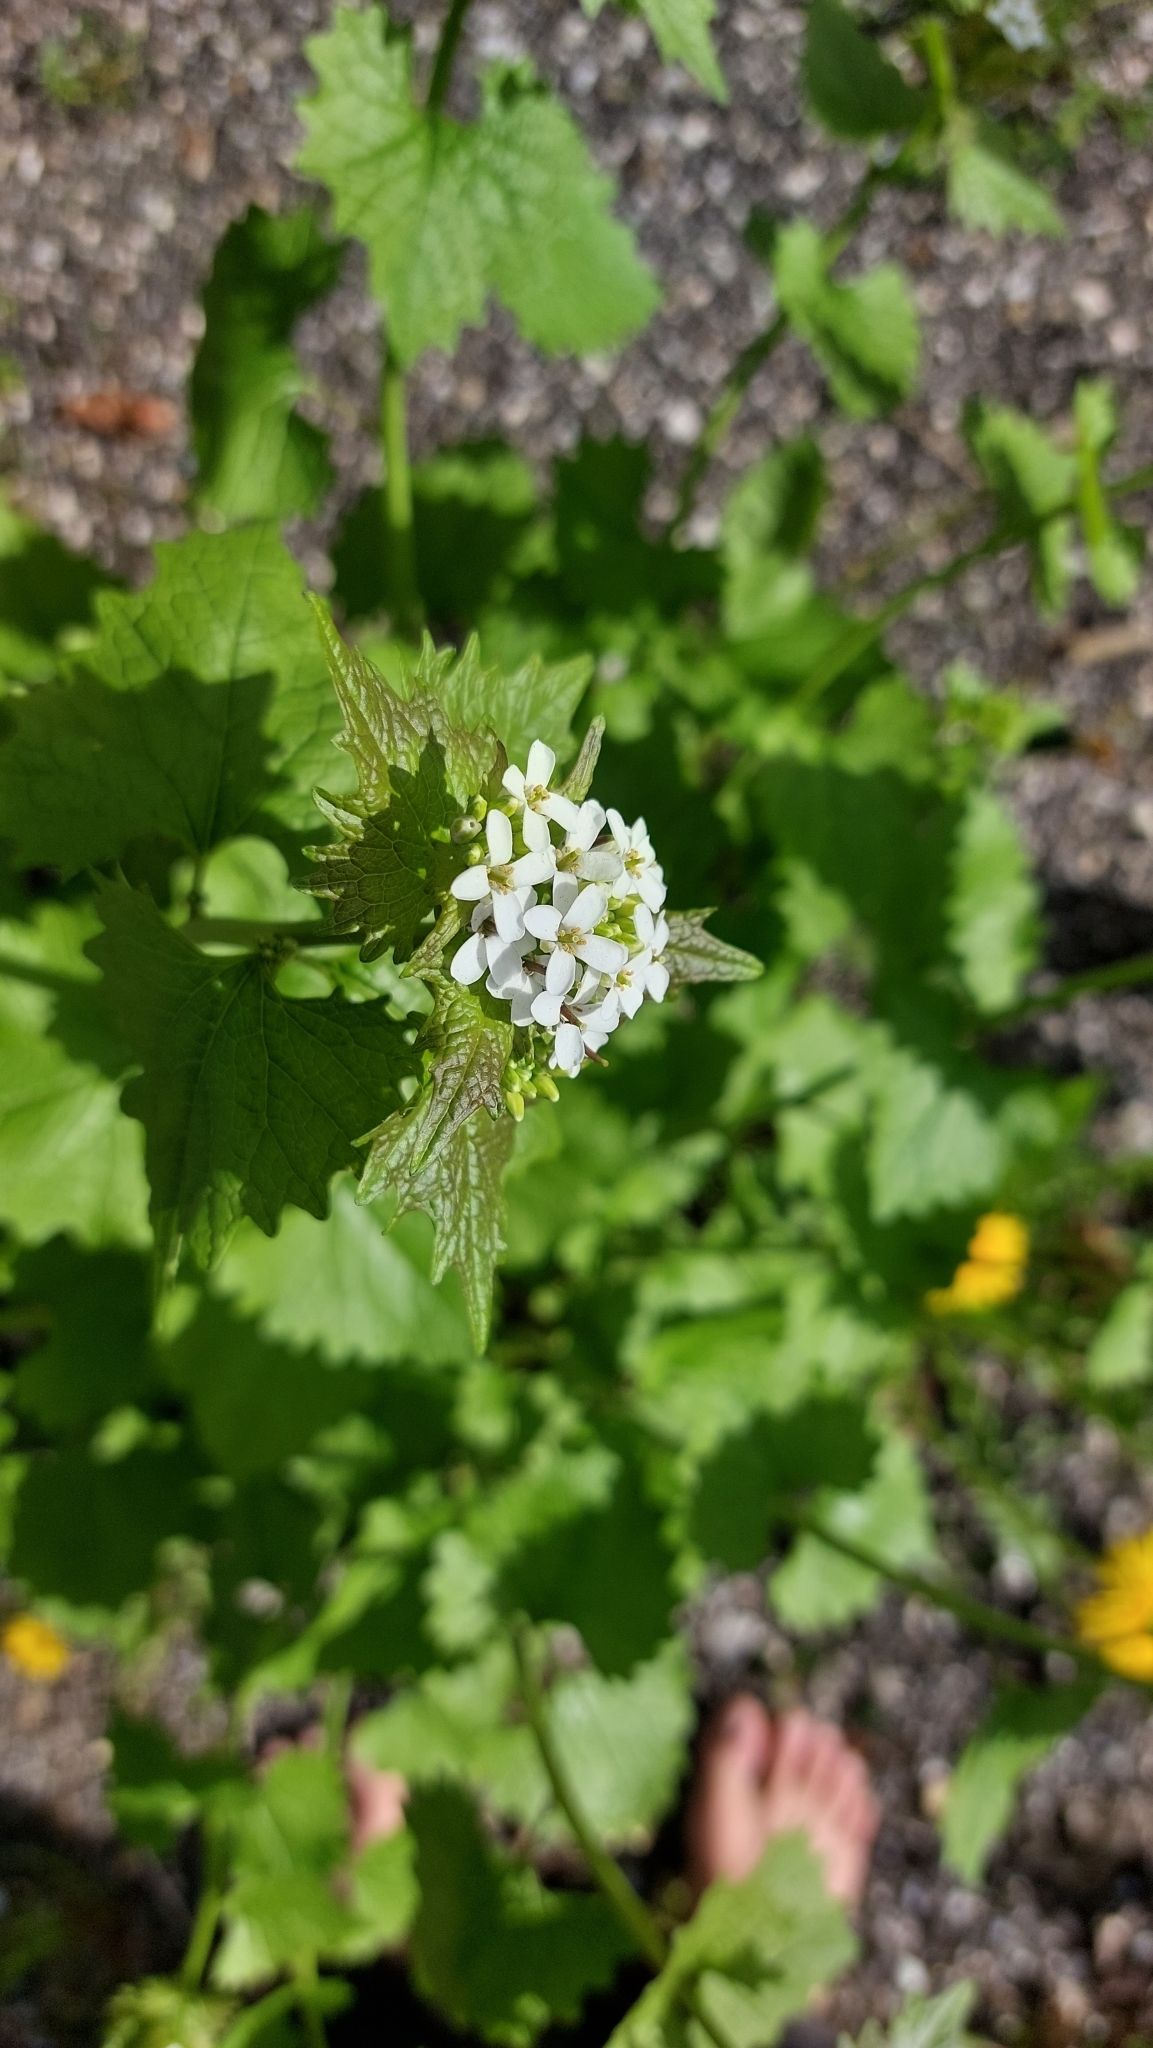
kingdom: Plantae
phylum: Tracheophyta
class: Magnoliopsida
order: Brassicales
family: Brassicaceae
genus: Alliaria
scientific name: Alliaria petiolata
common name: Garlic mustard
